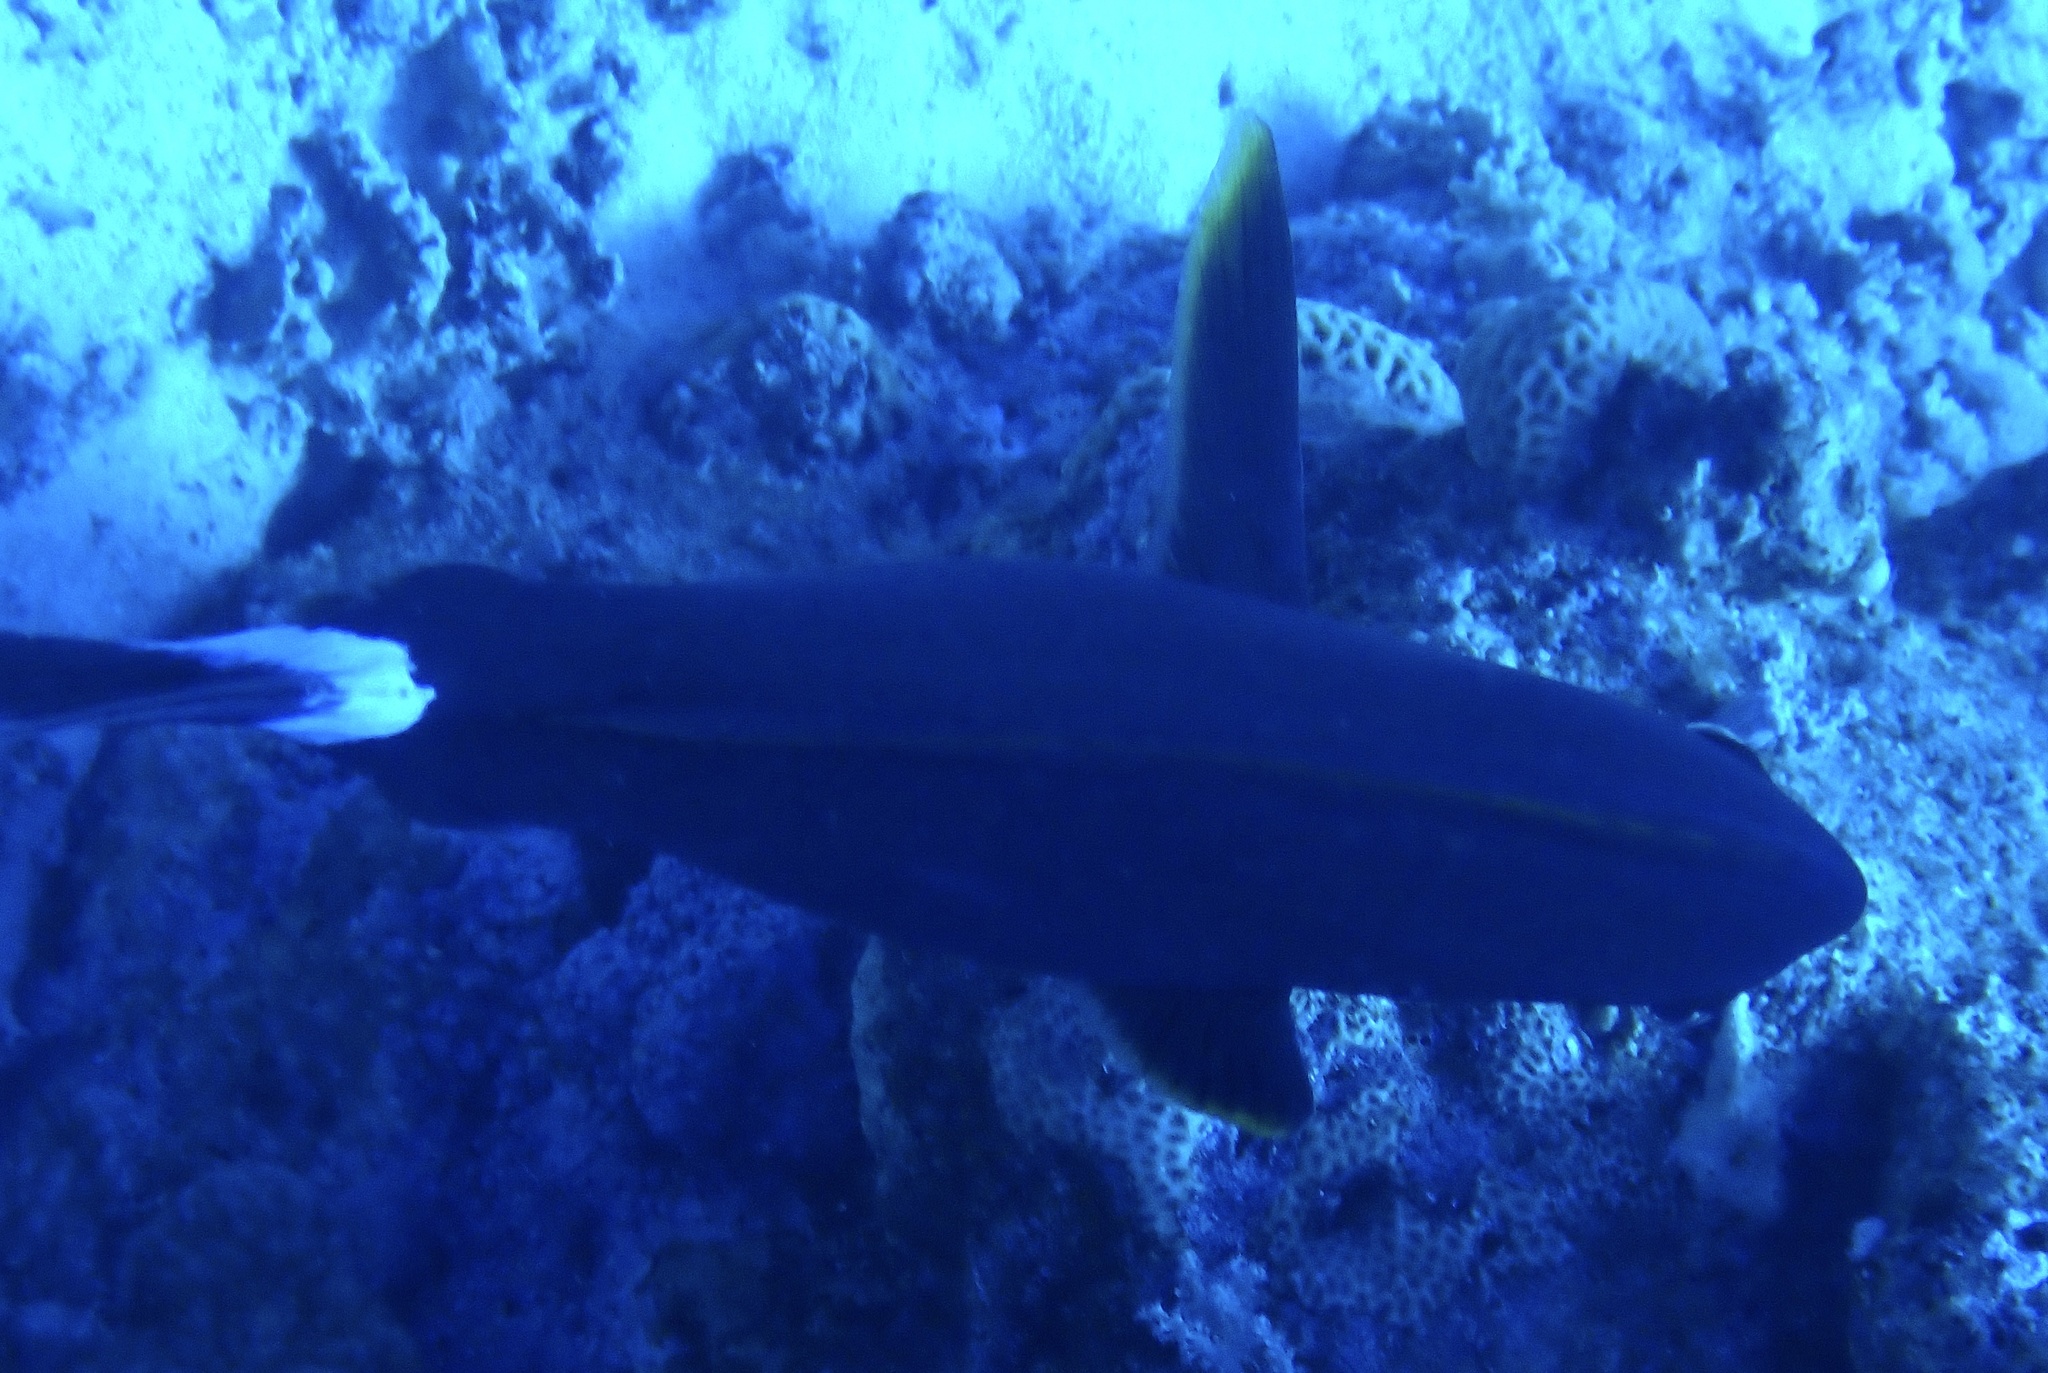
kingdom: Animalia
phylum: Chordata
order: Perciformes
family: Acanthuridae
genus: Acanthurus
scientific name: Acanthurus gahhm
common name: Black surgeonfish
